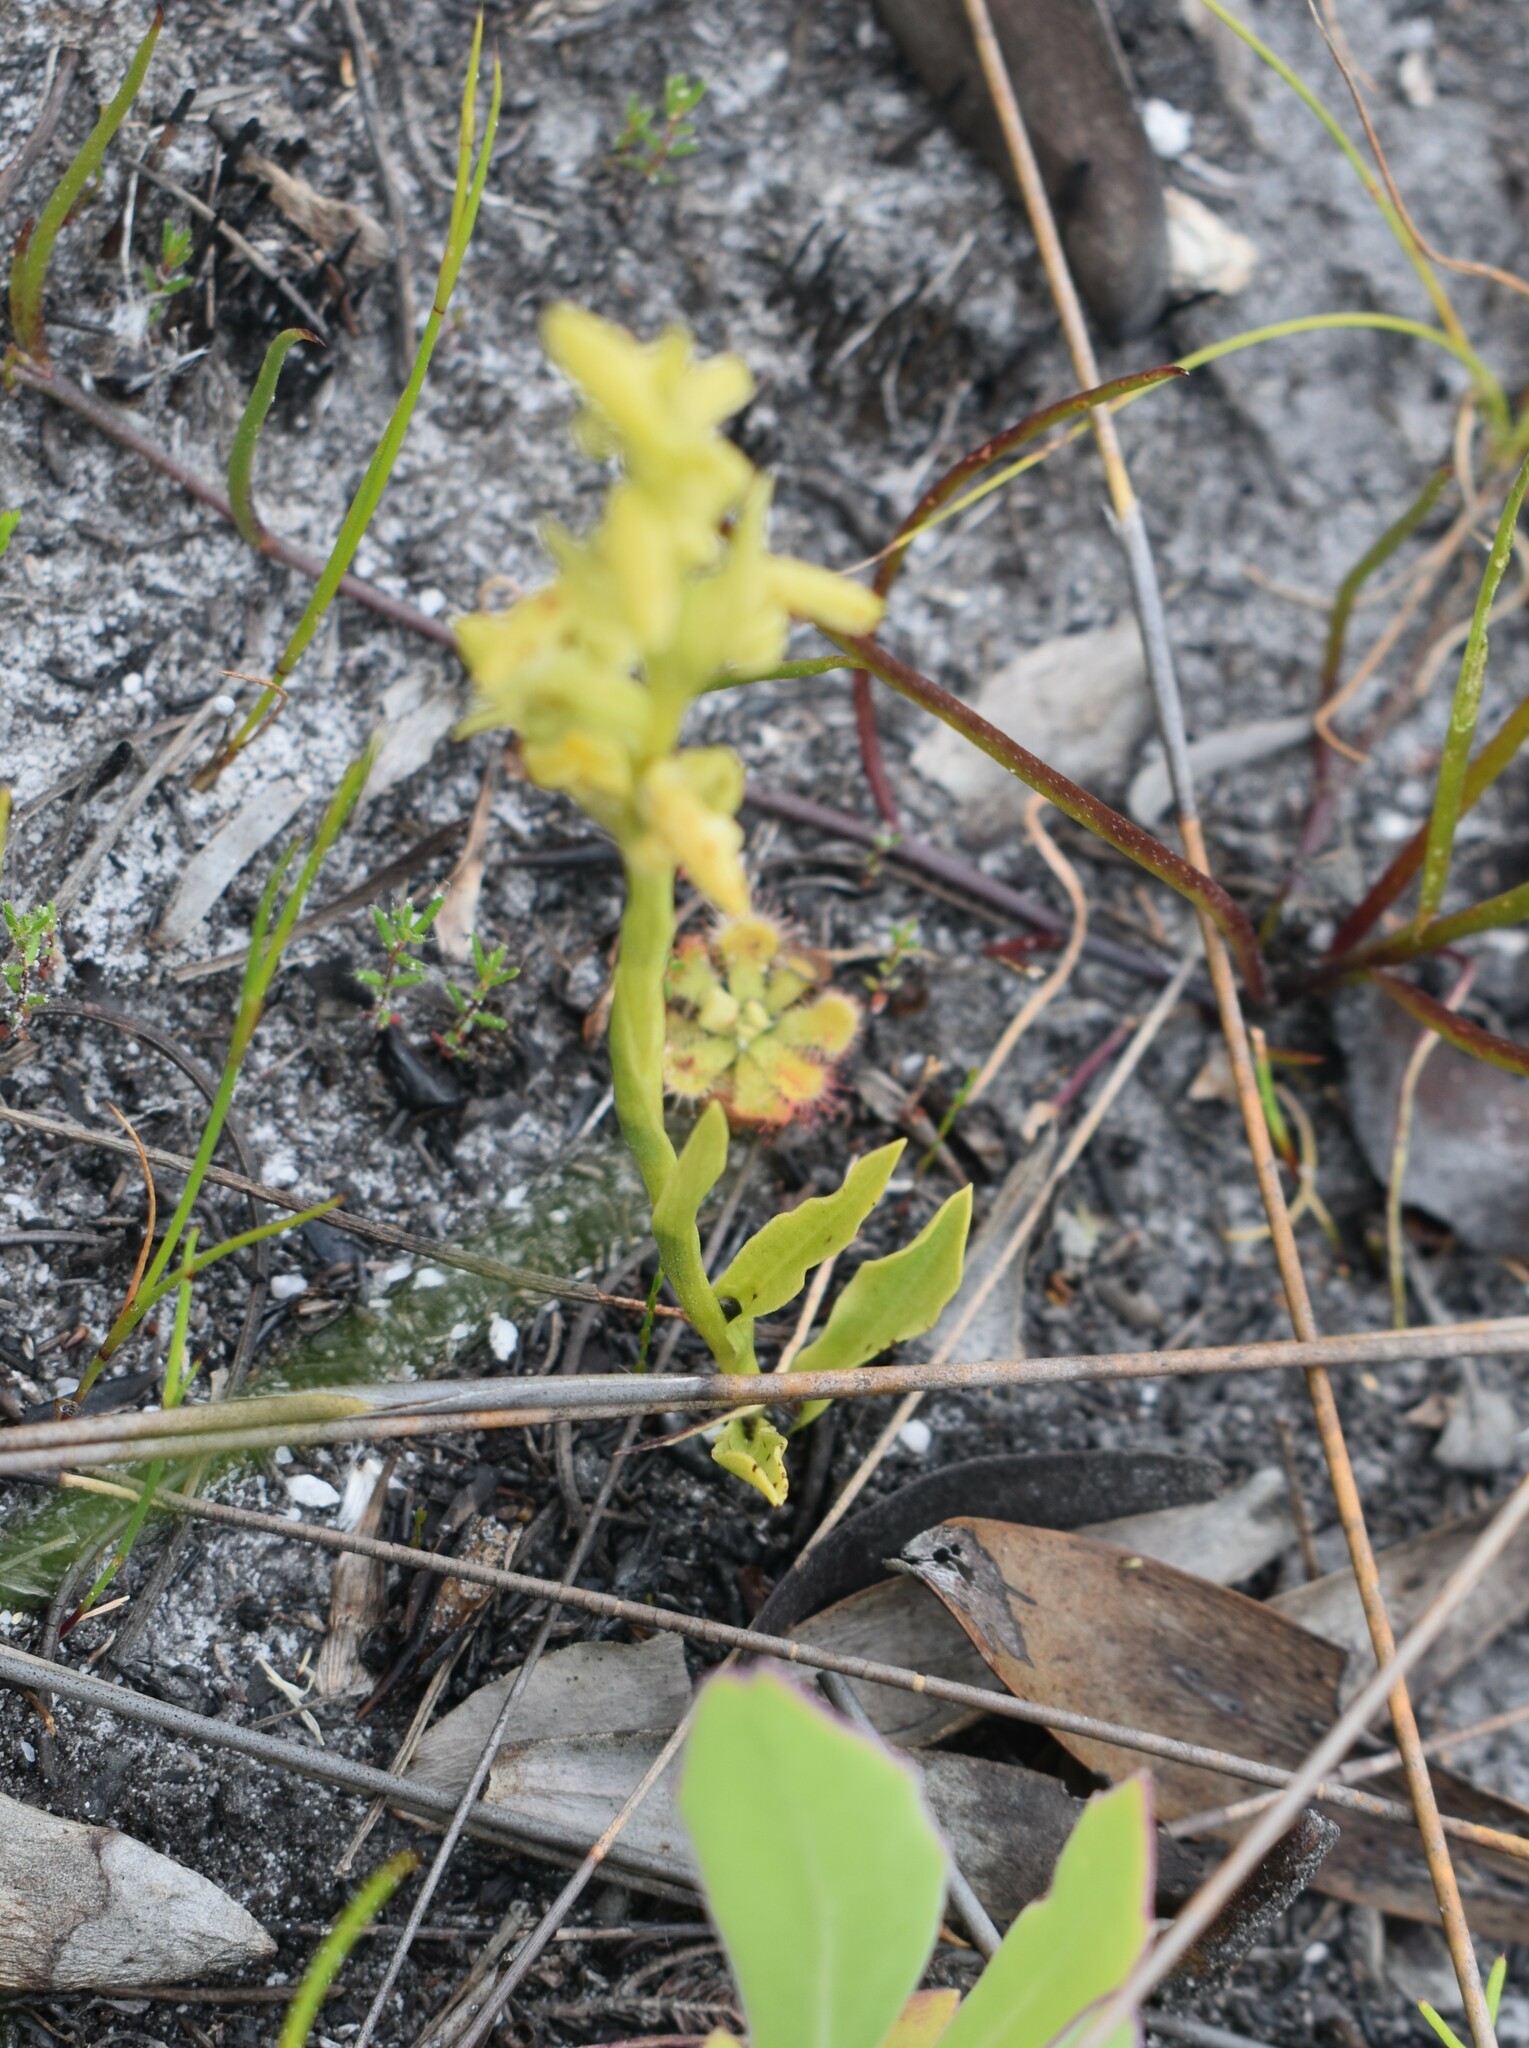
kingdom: Plantae
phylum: Tracheophyta
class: Liliopsida
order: Asparagales
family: Orchidaceae
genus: Disa
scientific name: Disa cylindrica
